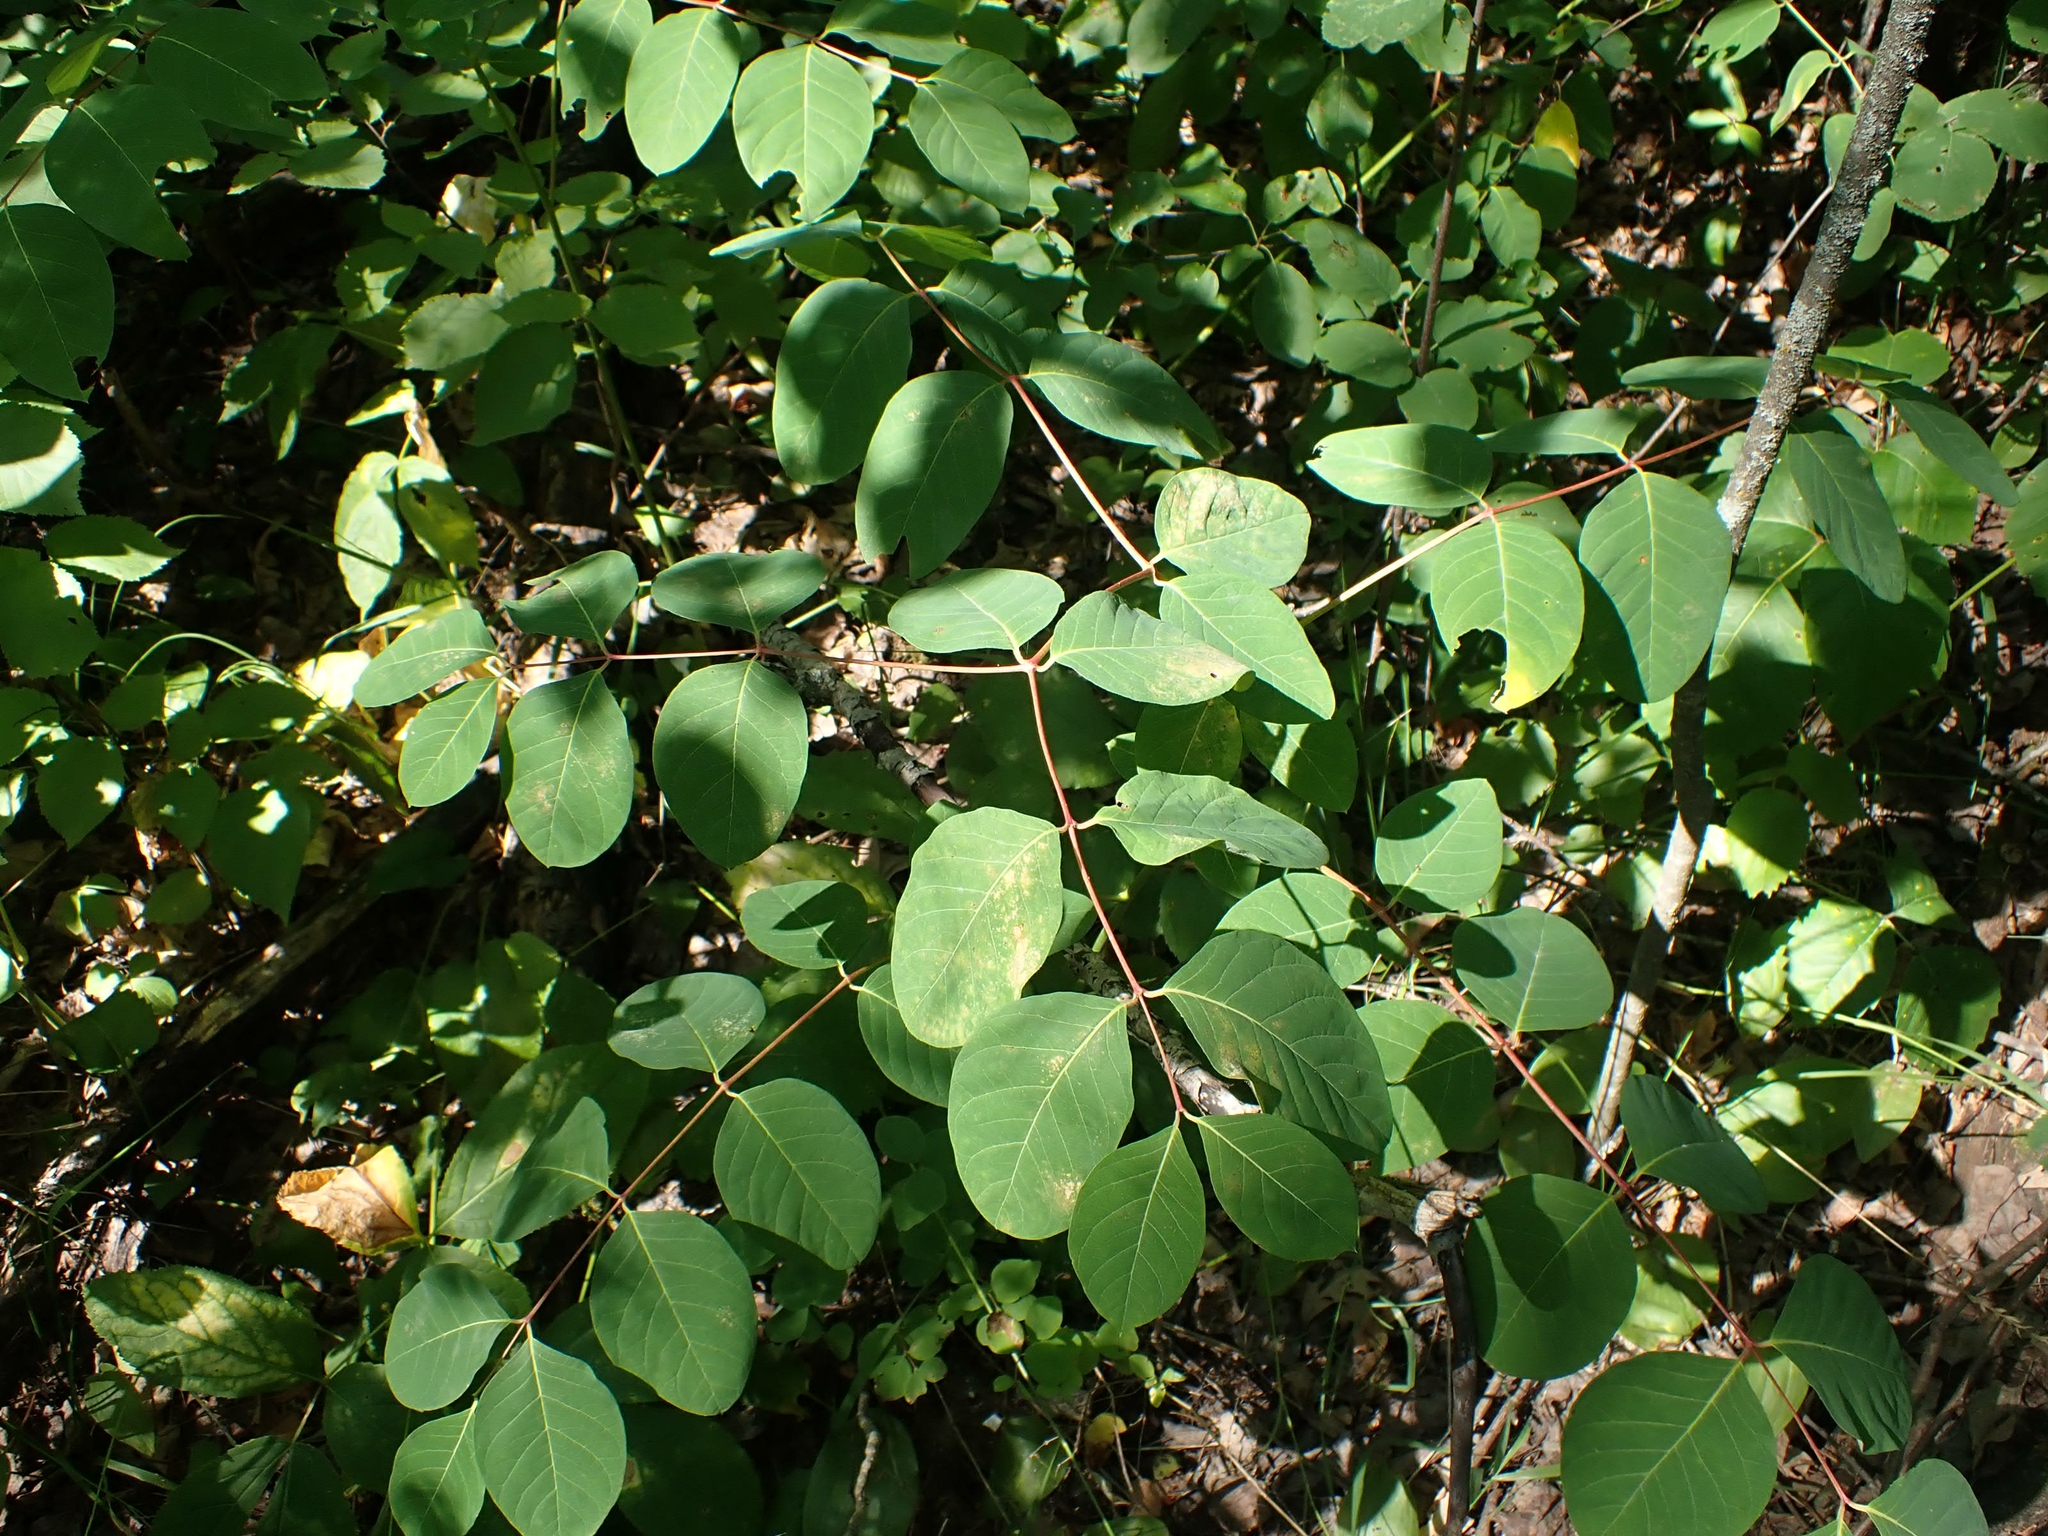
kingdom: Plantae
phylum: Tracheophyta
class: Magnoliopsida
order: Gentianales
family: Apocynaceae
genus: Apocynum
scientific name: Apocynum androsaemifolium
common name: Spreading dogbane
